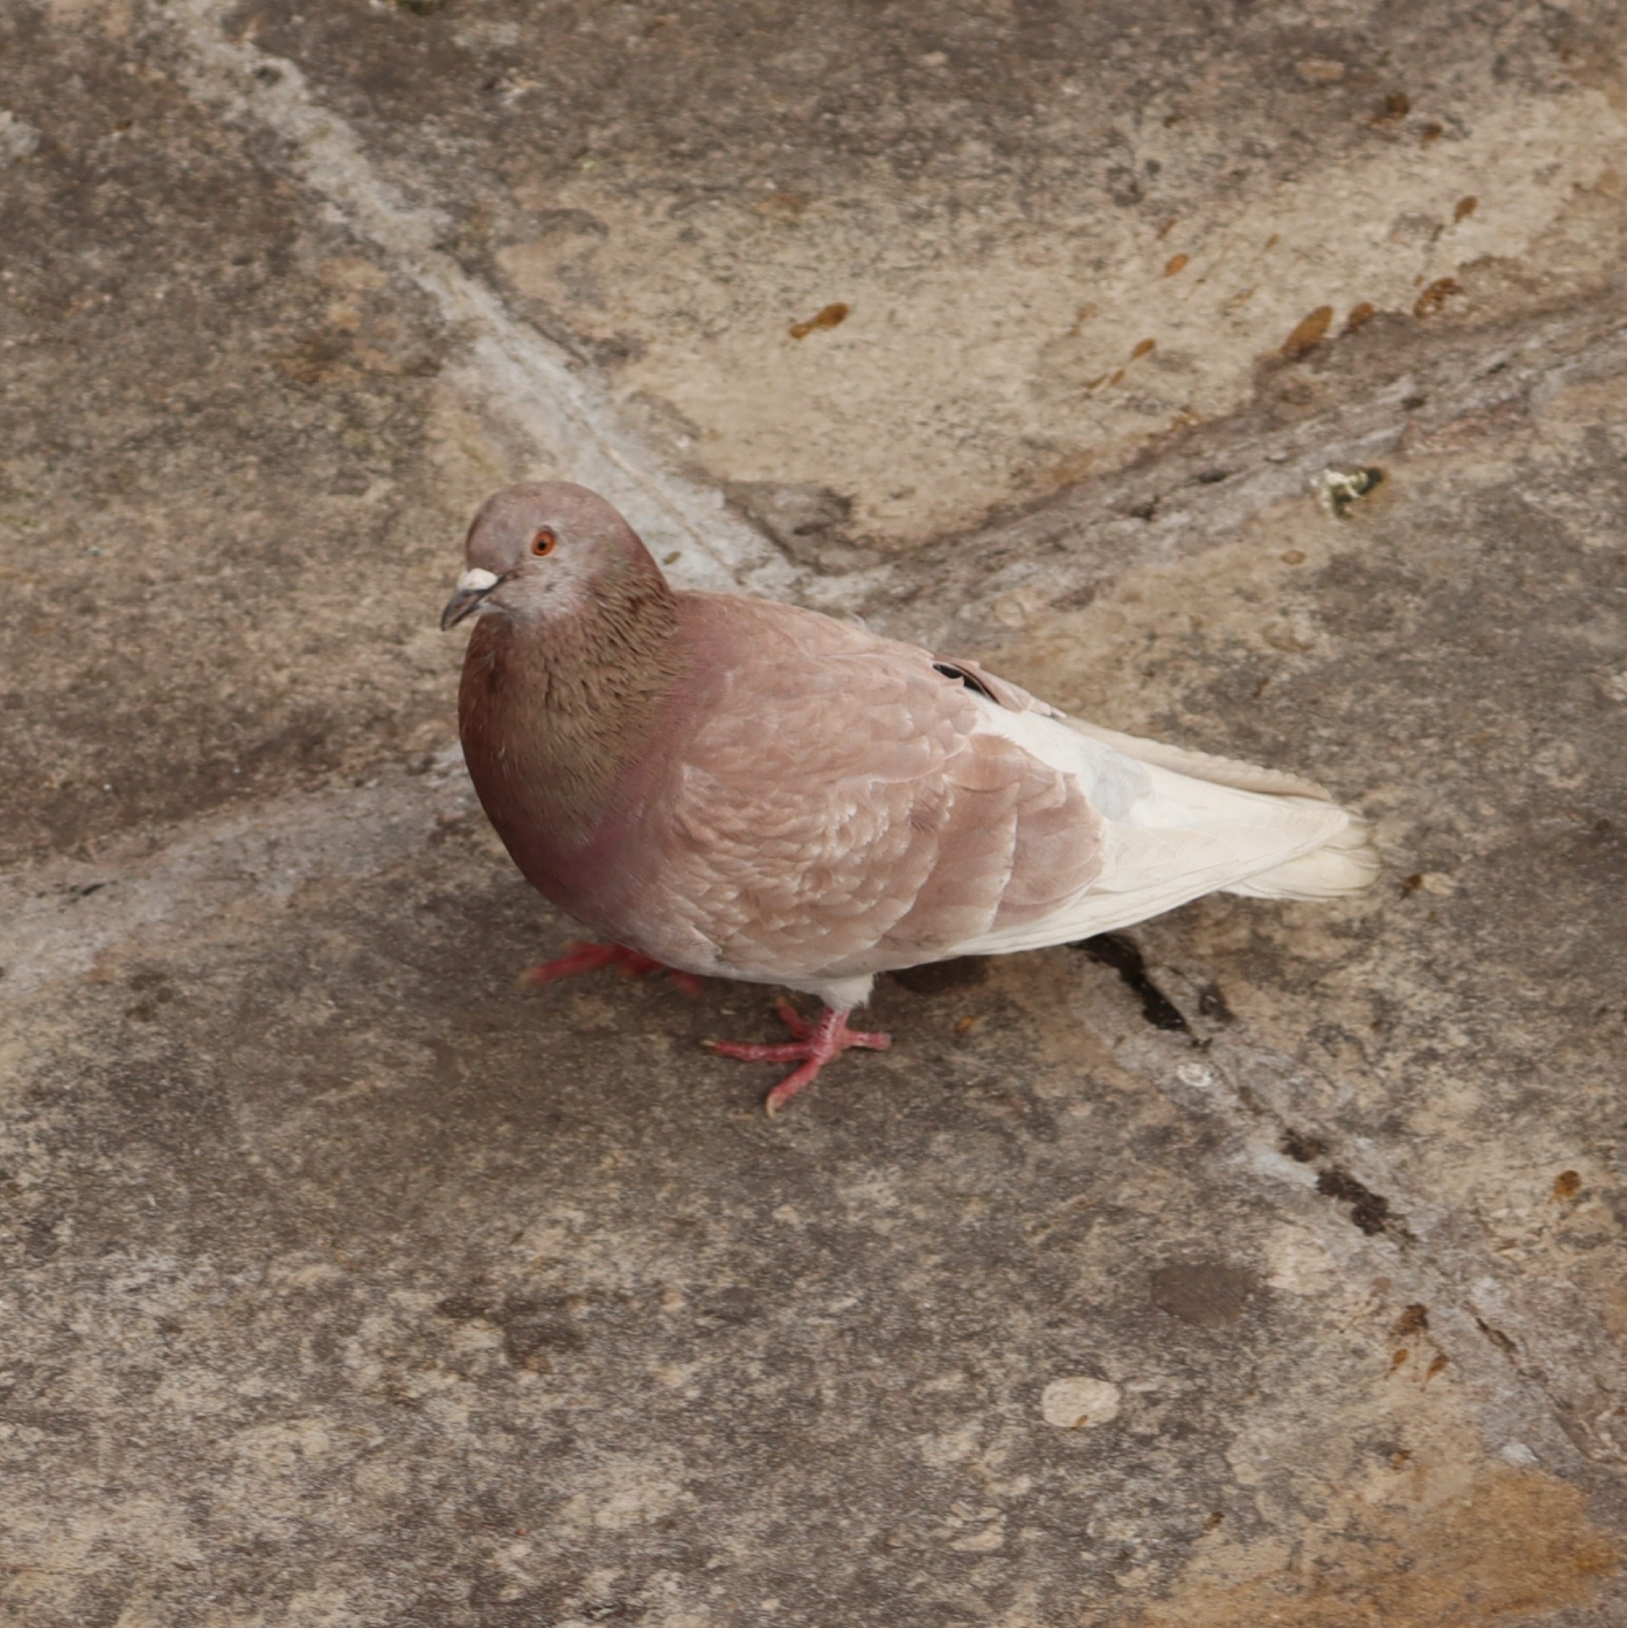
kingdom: Animalia
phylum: Chordata
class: Aves
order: Columbiformes
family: Columbidae
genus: Columba
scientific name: Columba livia
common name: Rock pigeon
